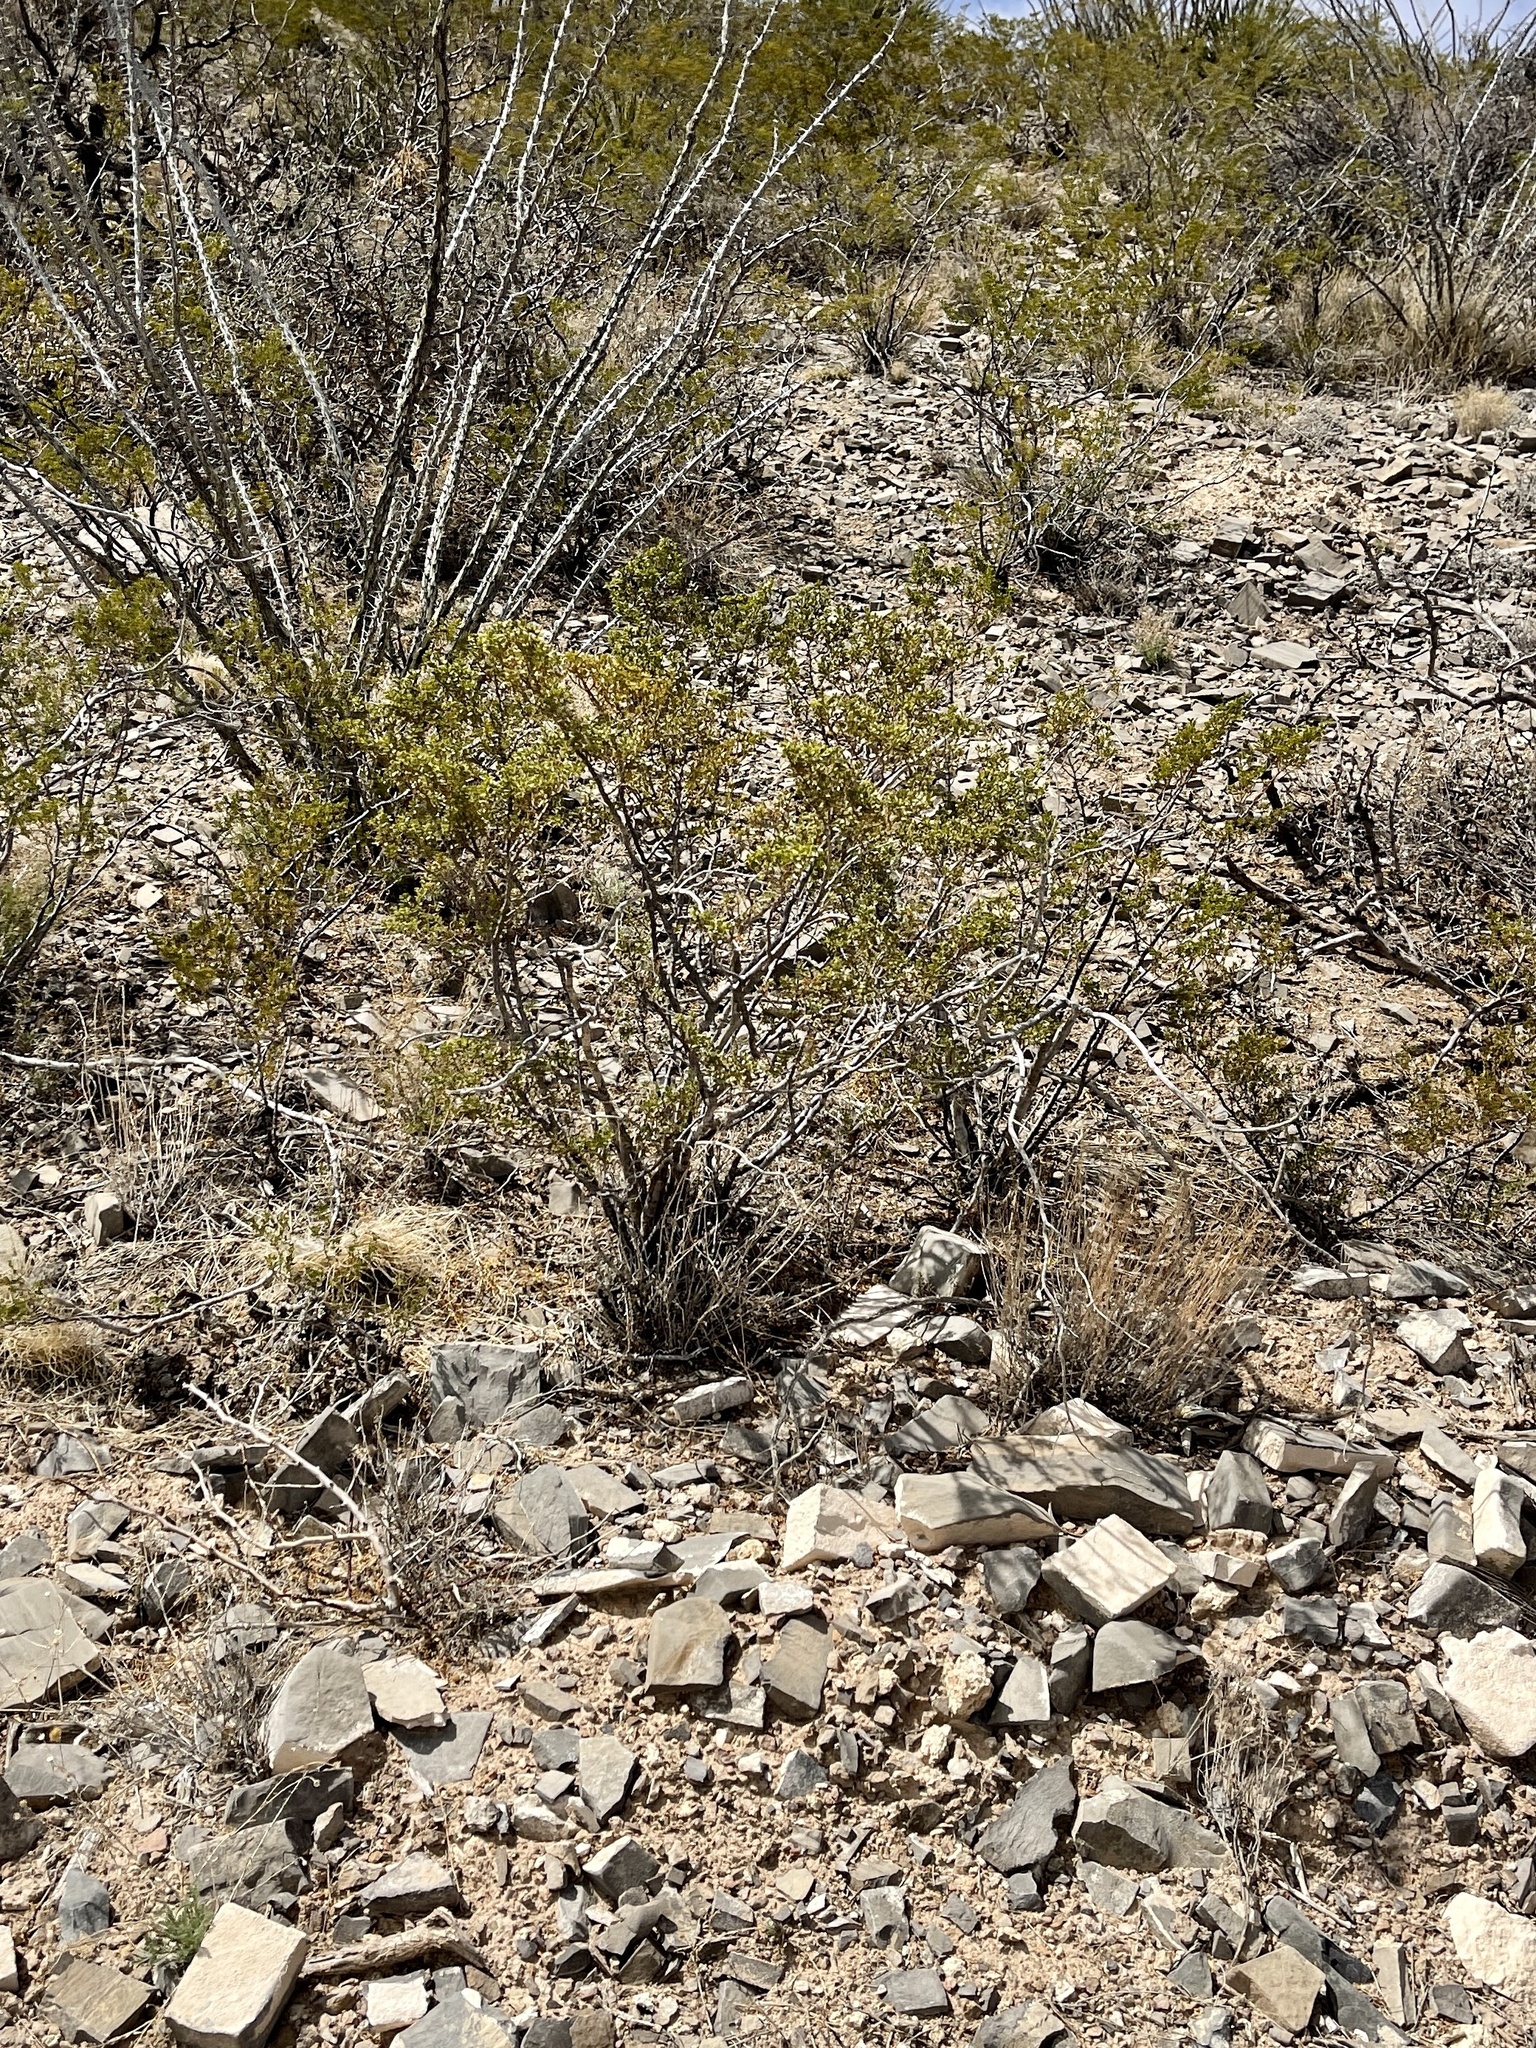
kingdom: Plantae
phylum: Tracheophyta
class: Magnoliopsida
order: Zygophyllales
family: Zygophyllaceae
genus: Larrea
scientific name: Larrea tridentata
